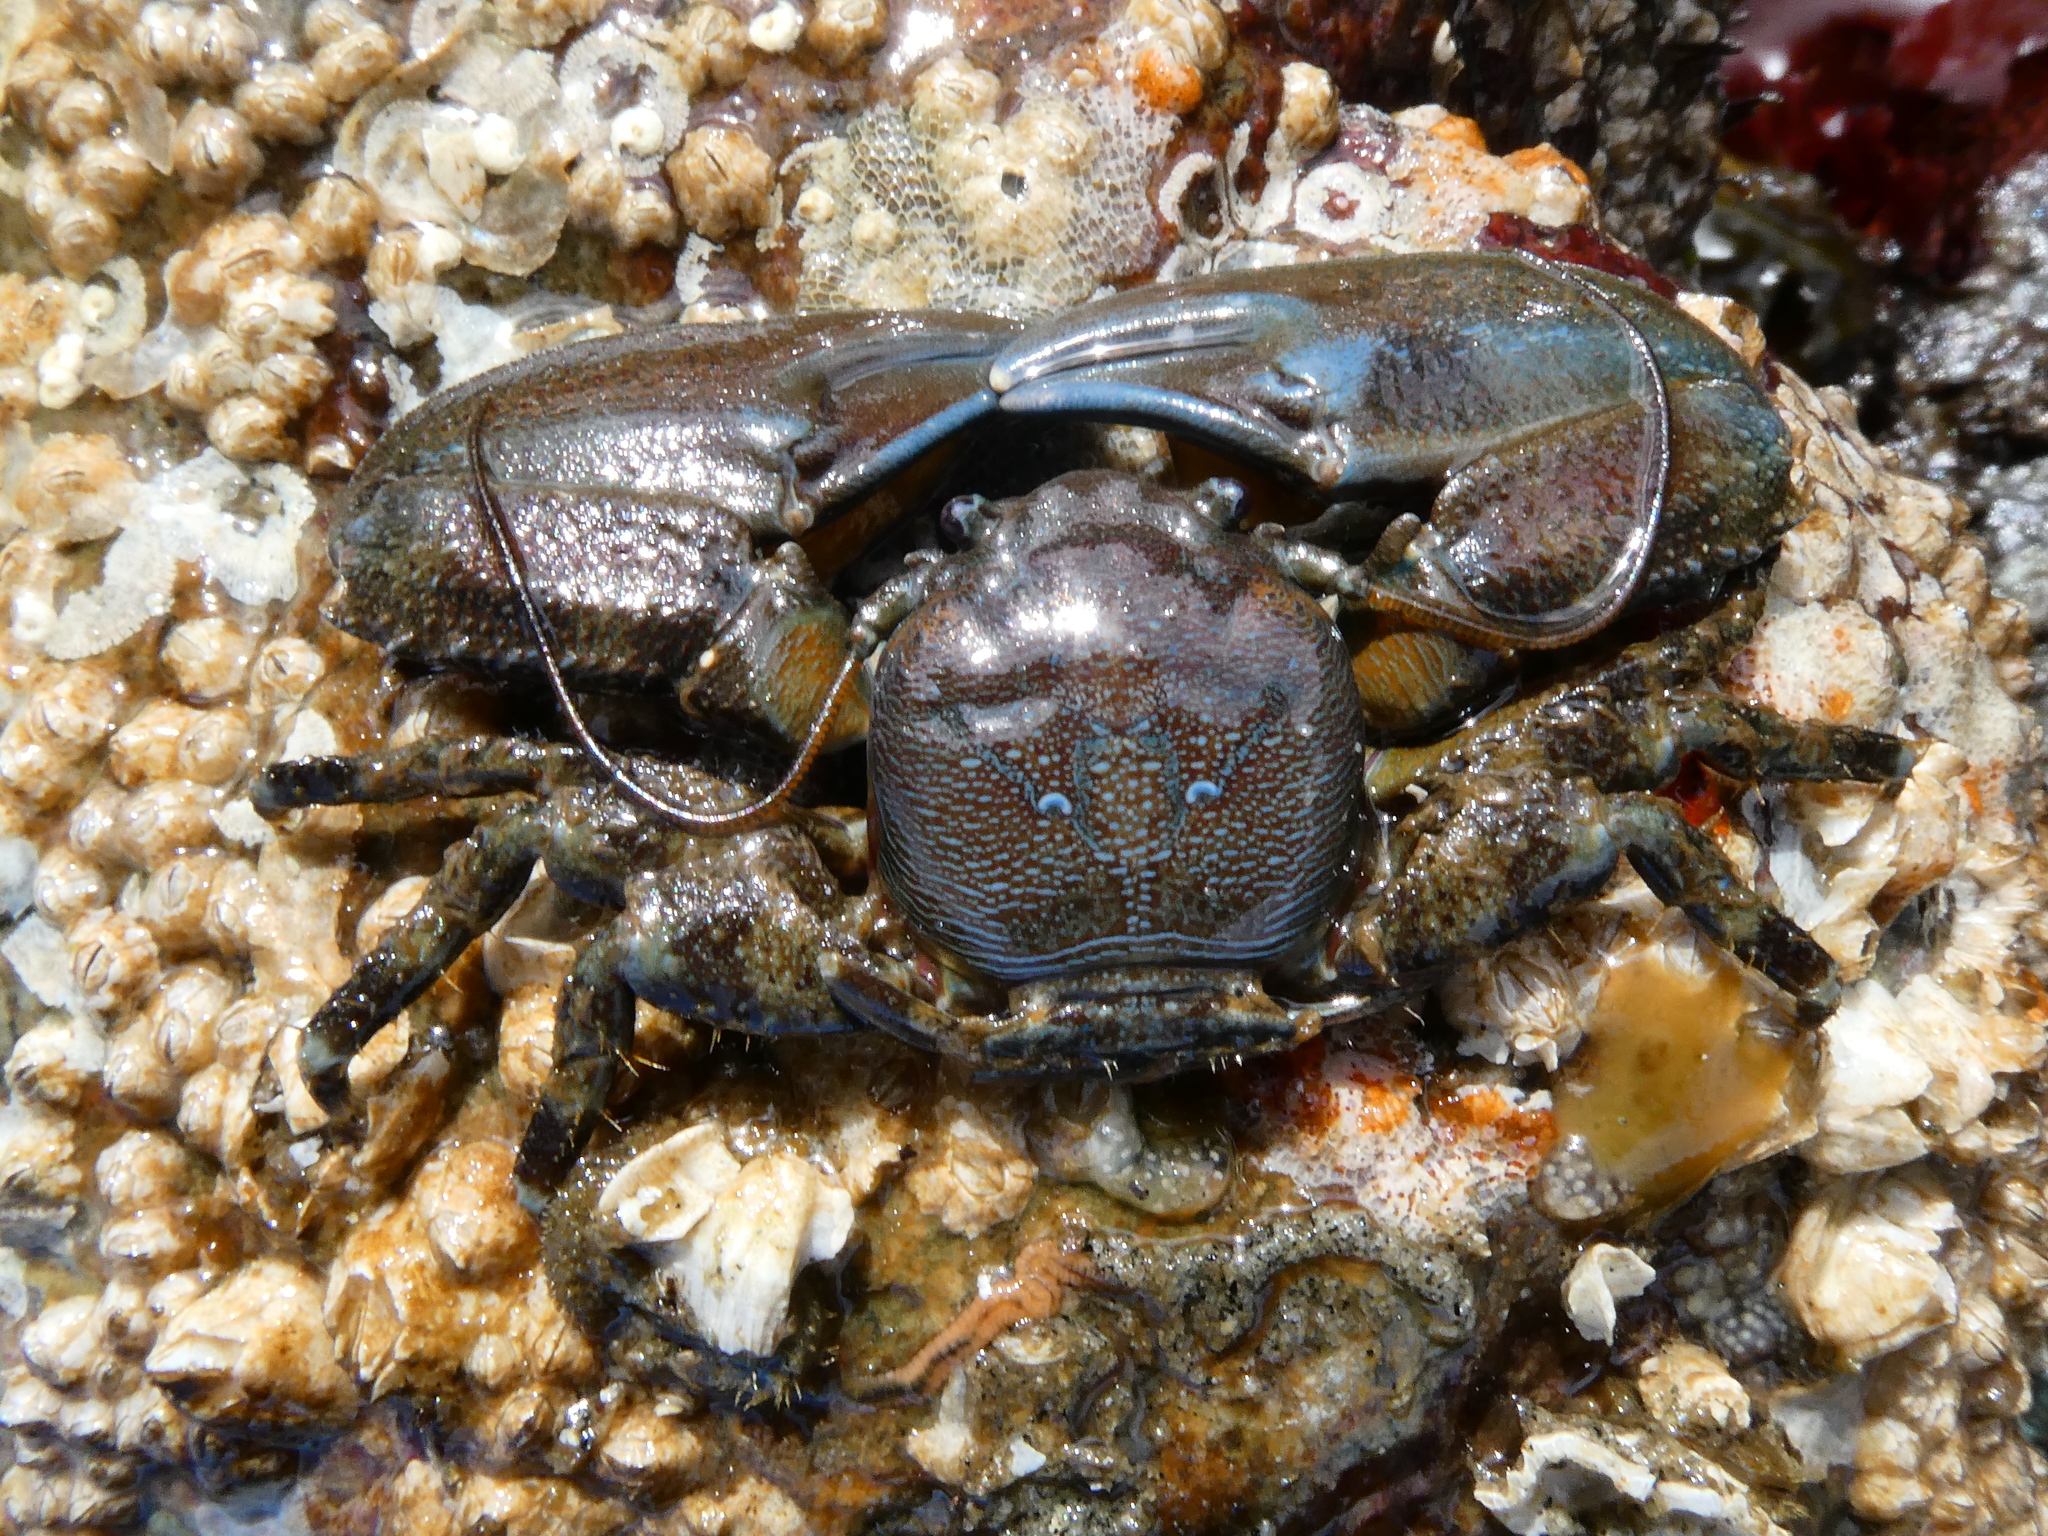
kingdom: Animalia
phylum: Arthropoda
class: Malacostraca
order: Decapoda
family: Porcellanidae
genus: Petrolisthes
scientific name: Petrolisthes eriomerus
